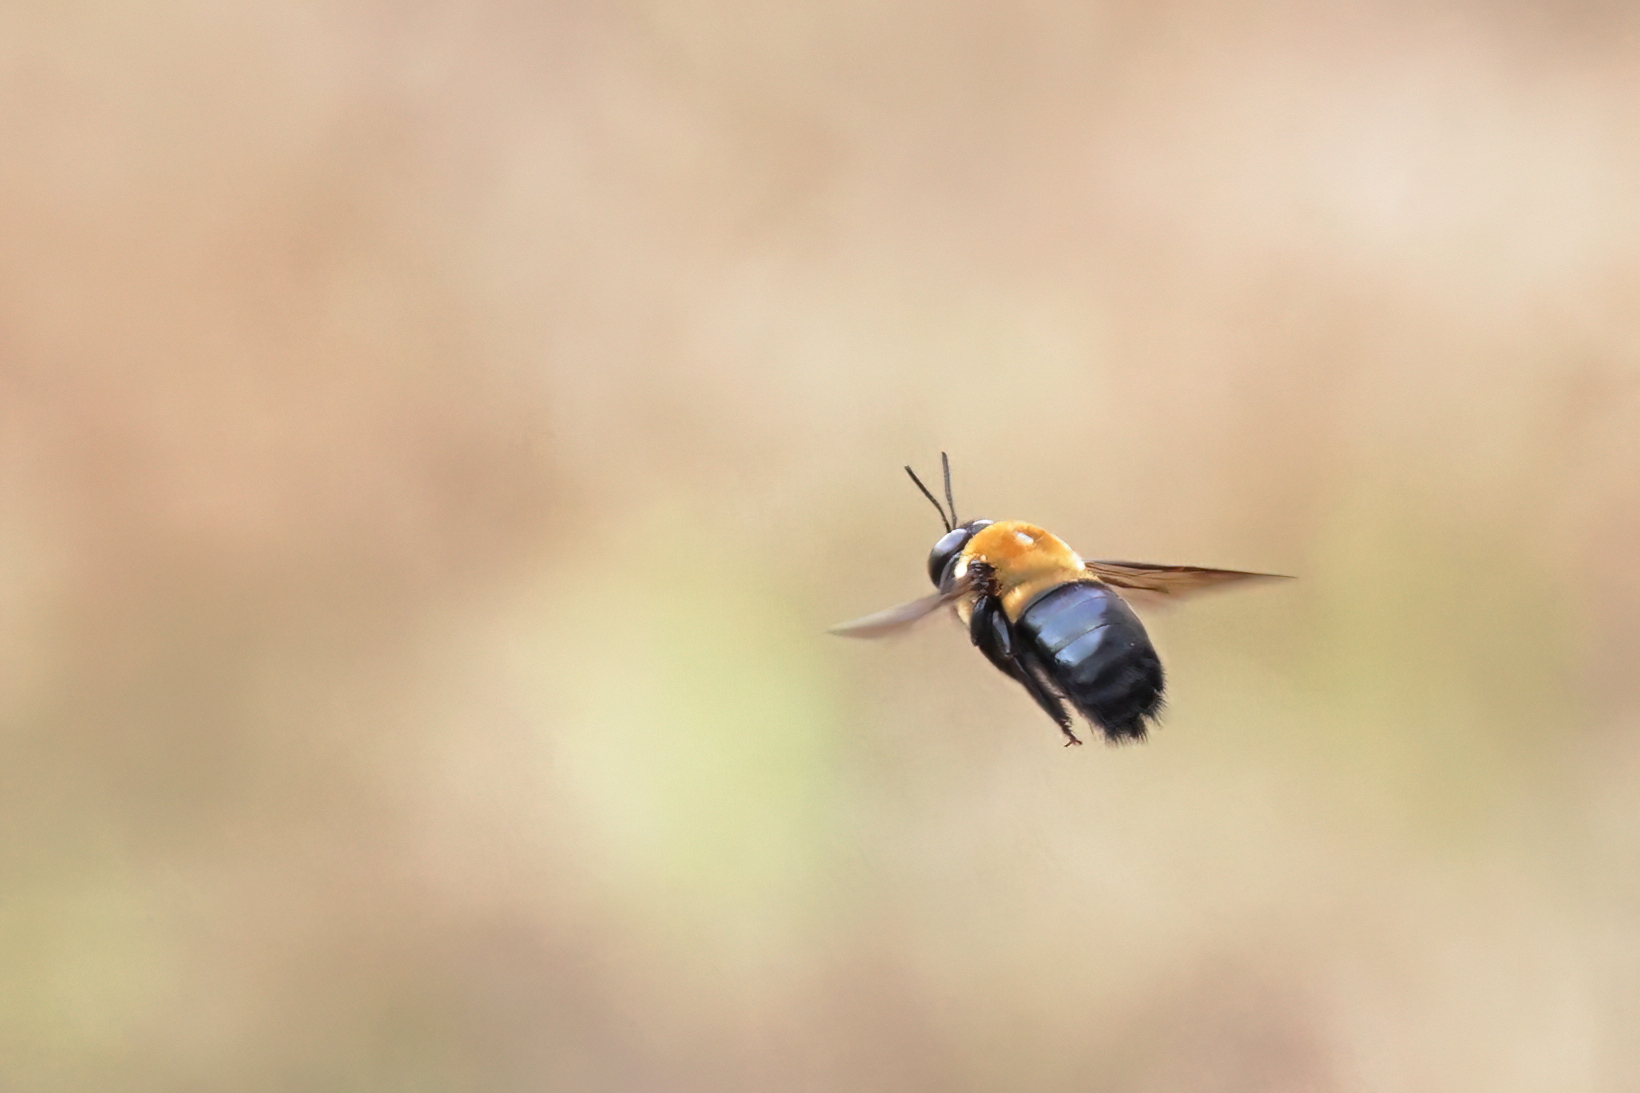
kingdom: Animalia
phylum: Arthropoda
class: Insecta
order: Hymenoptera
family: Apidae
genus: Xylocopa
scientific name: Xylocopa virginica
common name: Carpenter bee
